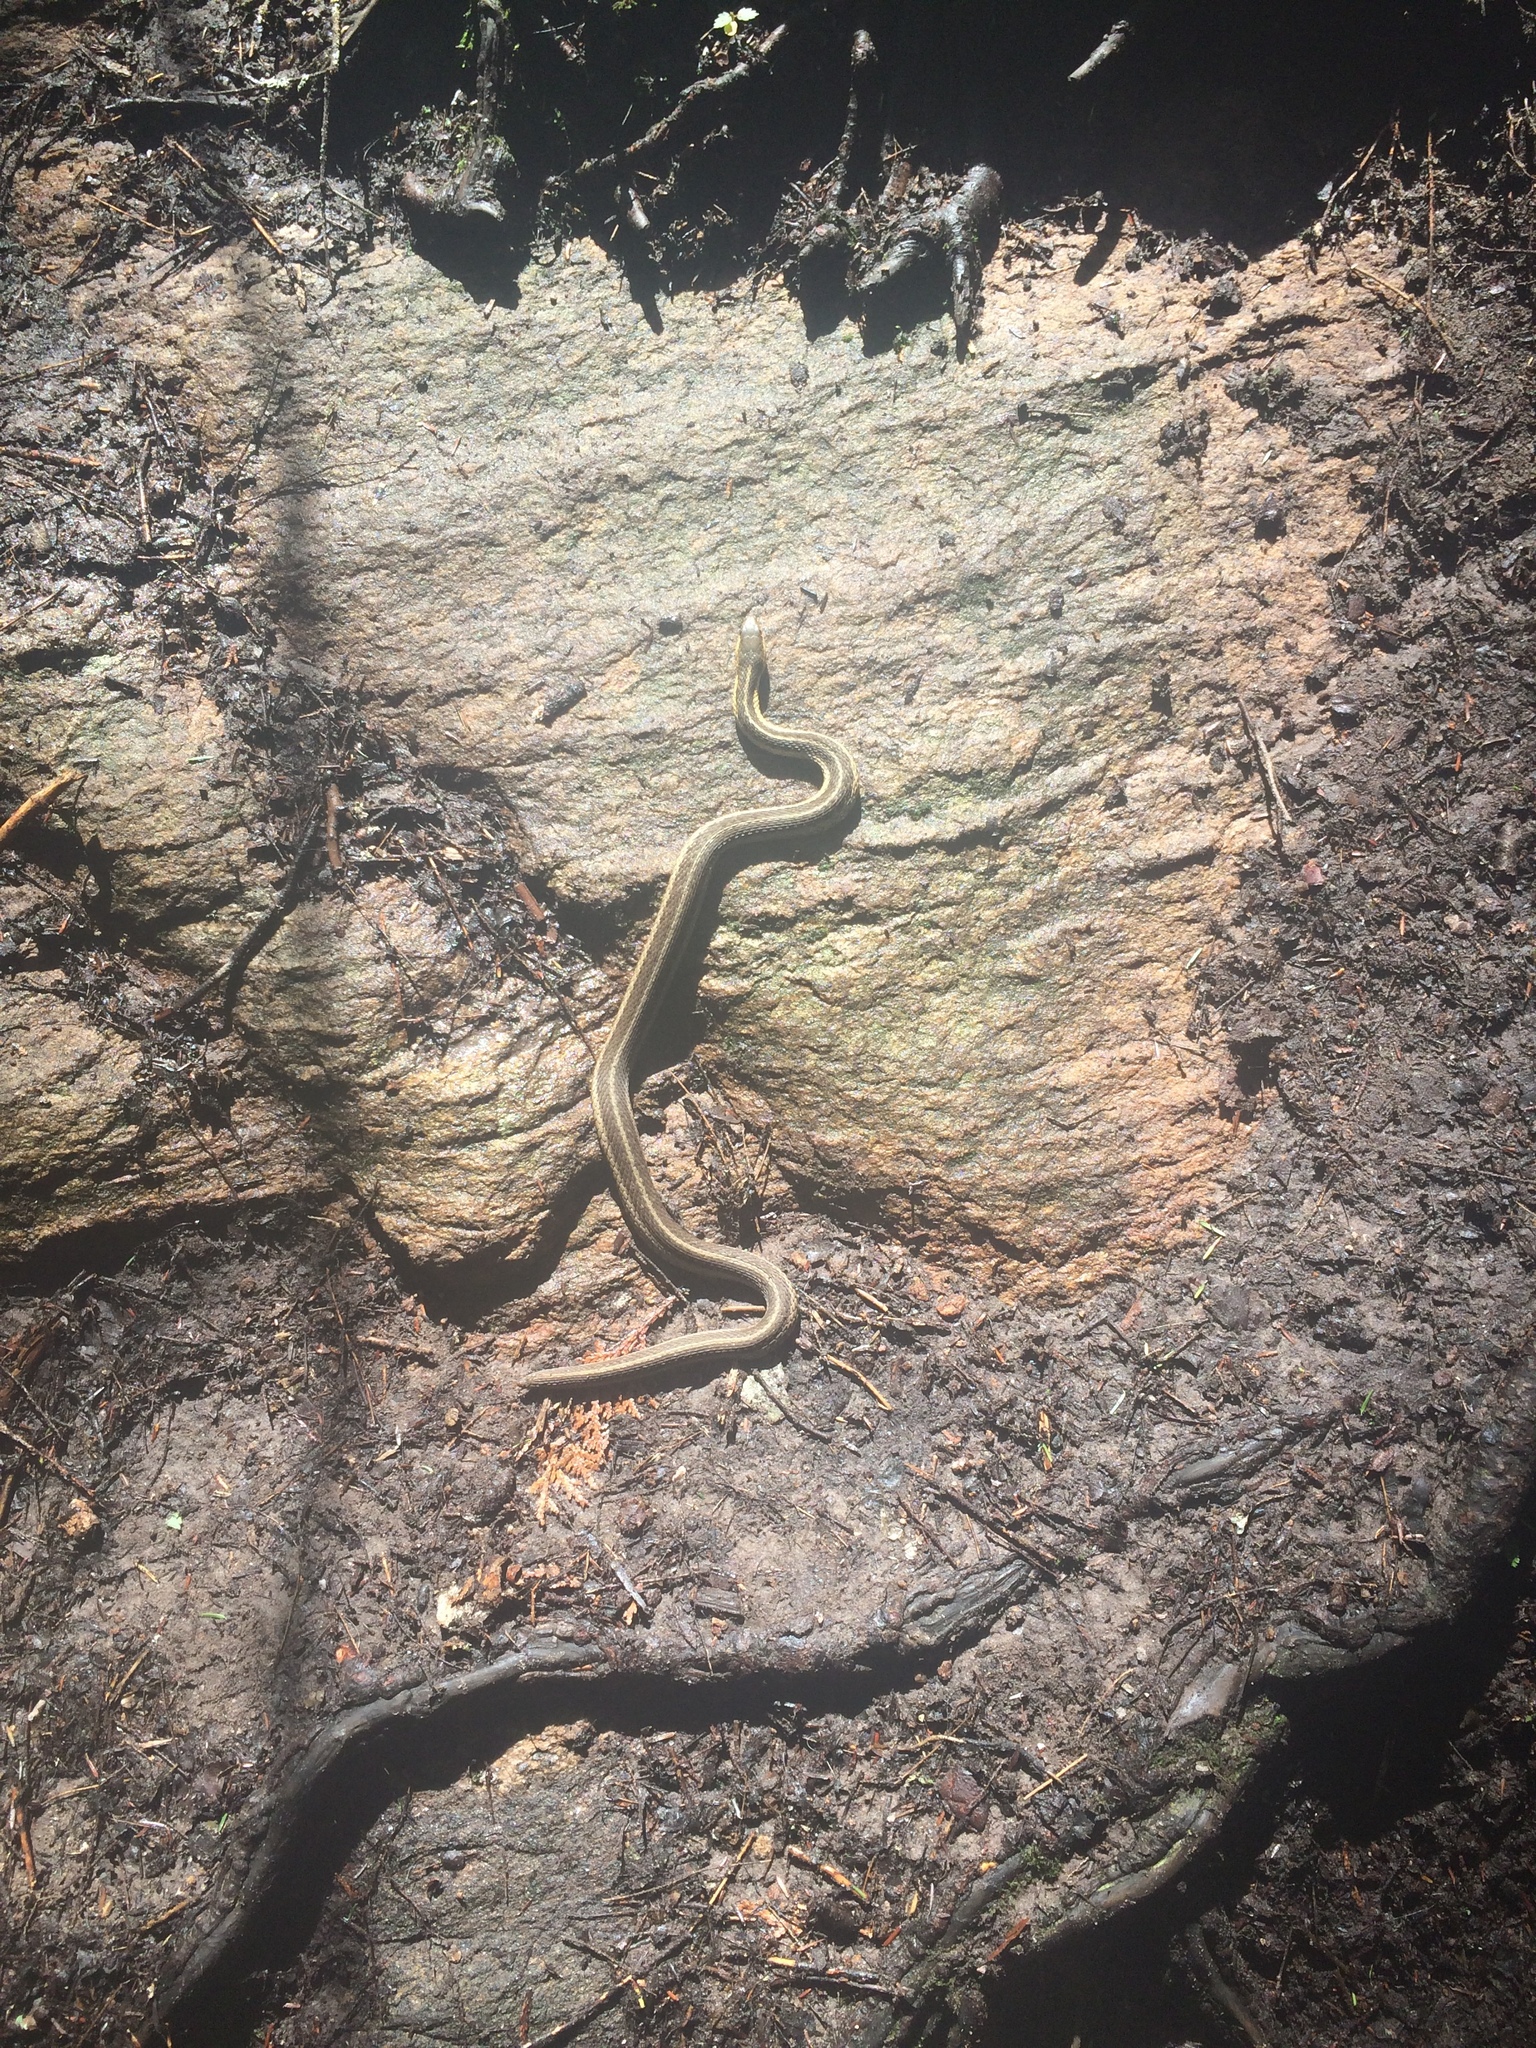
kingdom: Animalia
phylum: Chordata
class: Squamata
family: Colubridae
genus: Thamnophis
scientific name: Thamnophis sirtalis
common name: Common garter snake
